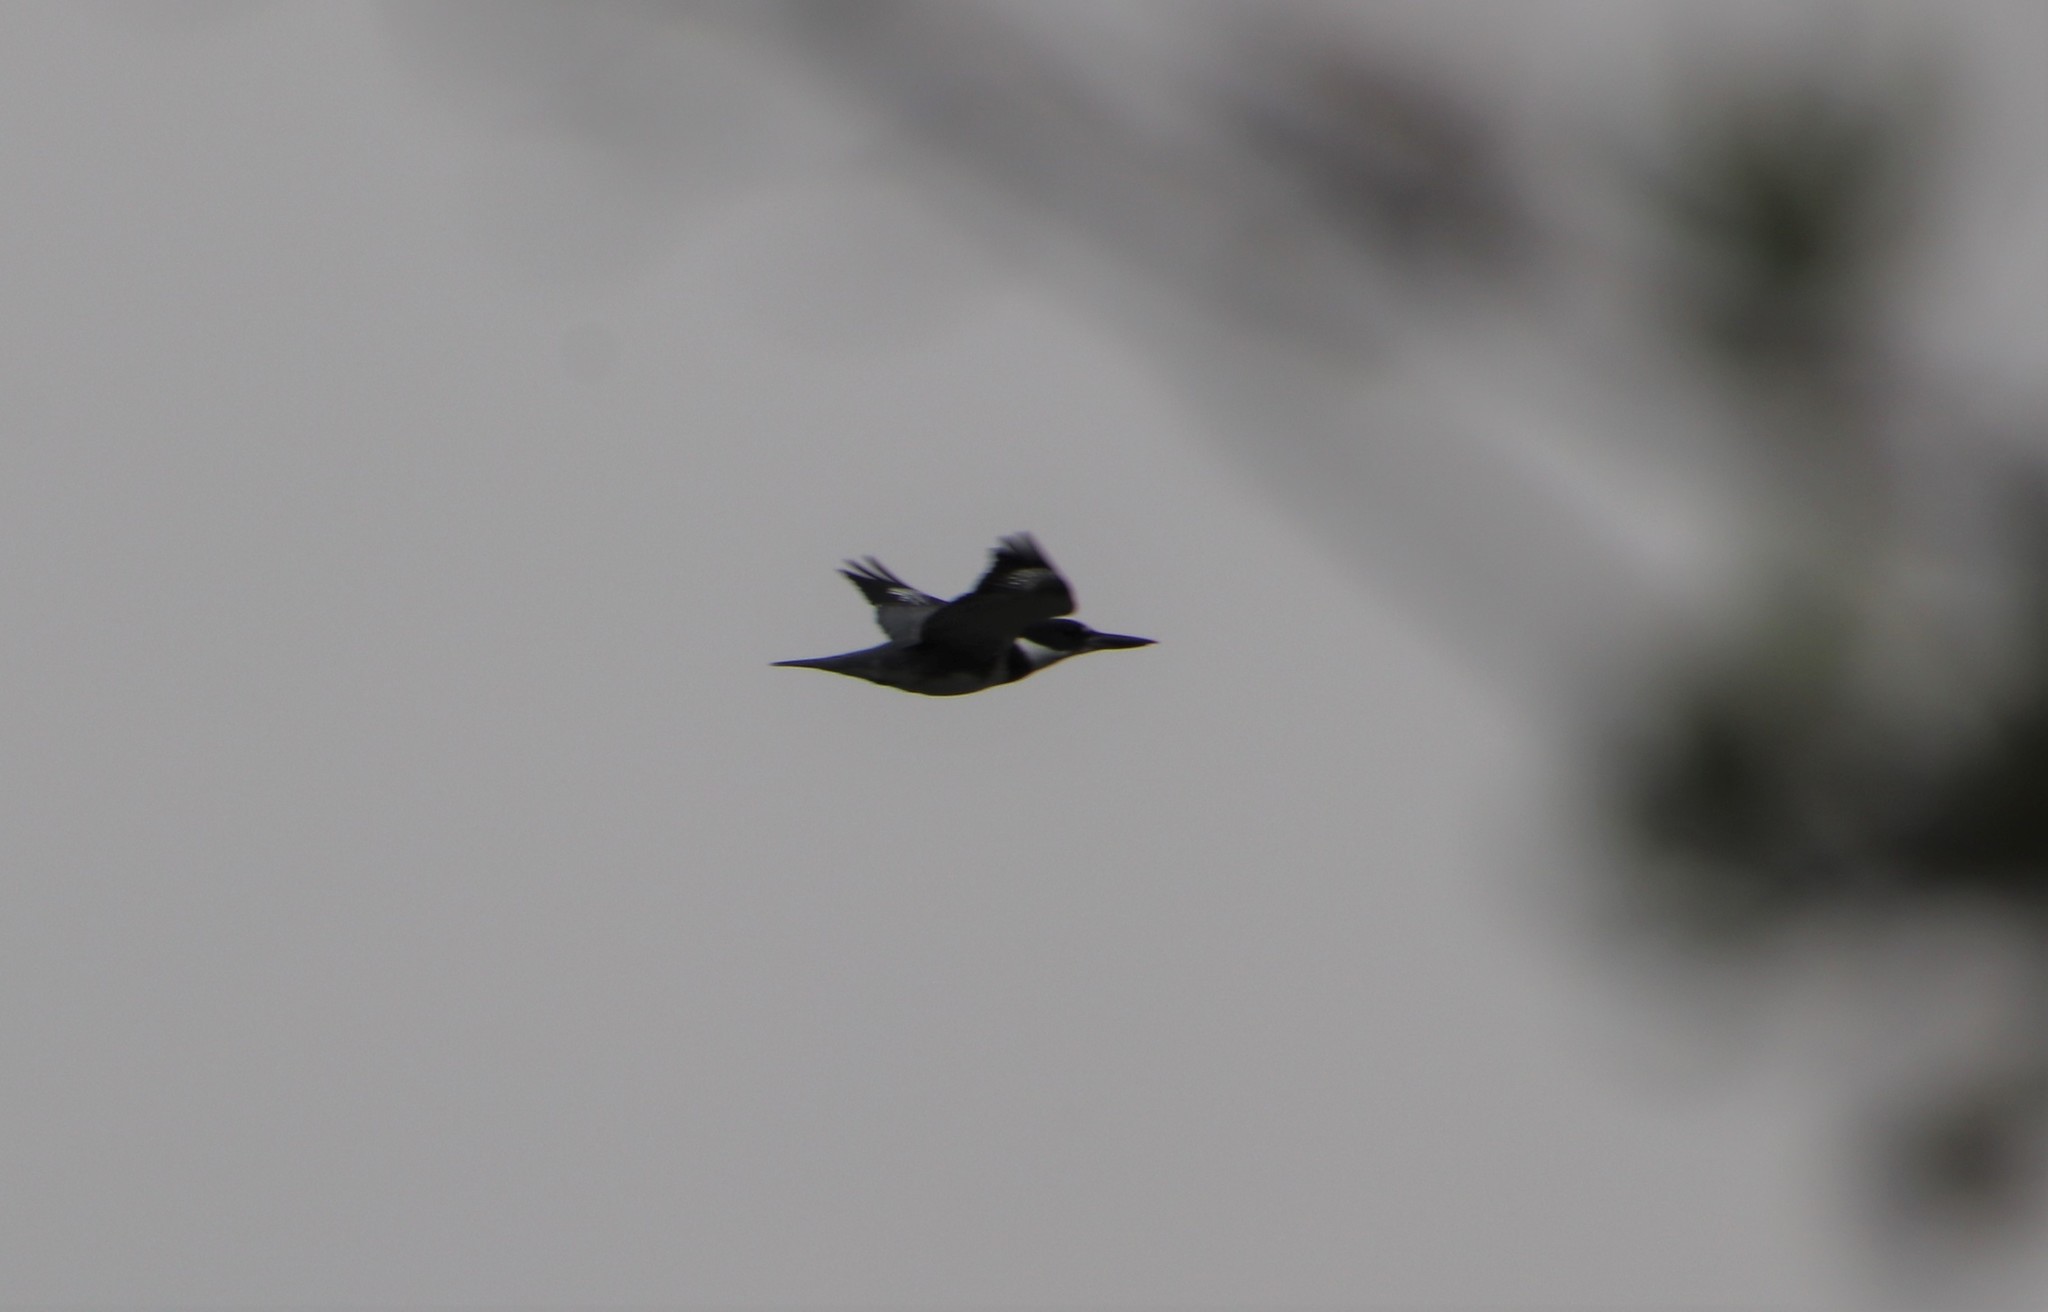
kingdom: Animalia
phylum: Chordata
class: Aves
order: Coraciiformes
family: Alcedinidae
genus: Megaceryle
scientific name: Megaceryle alcyon
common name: Belted kingfisher
